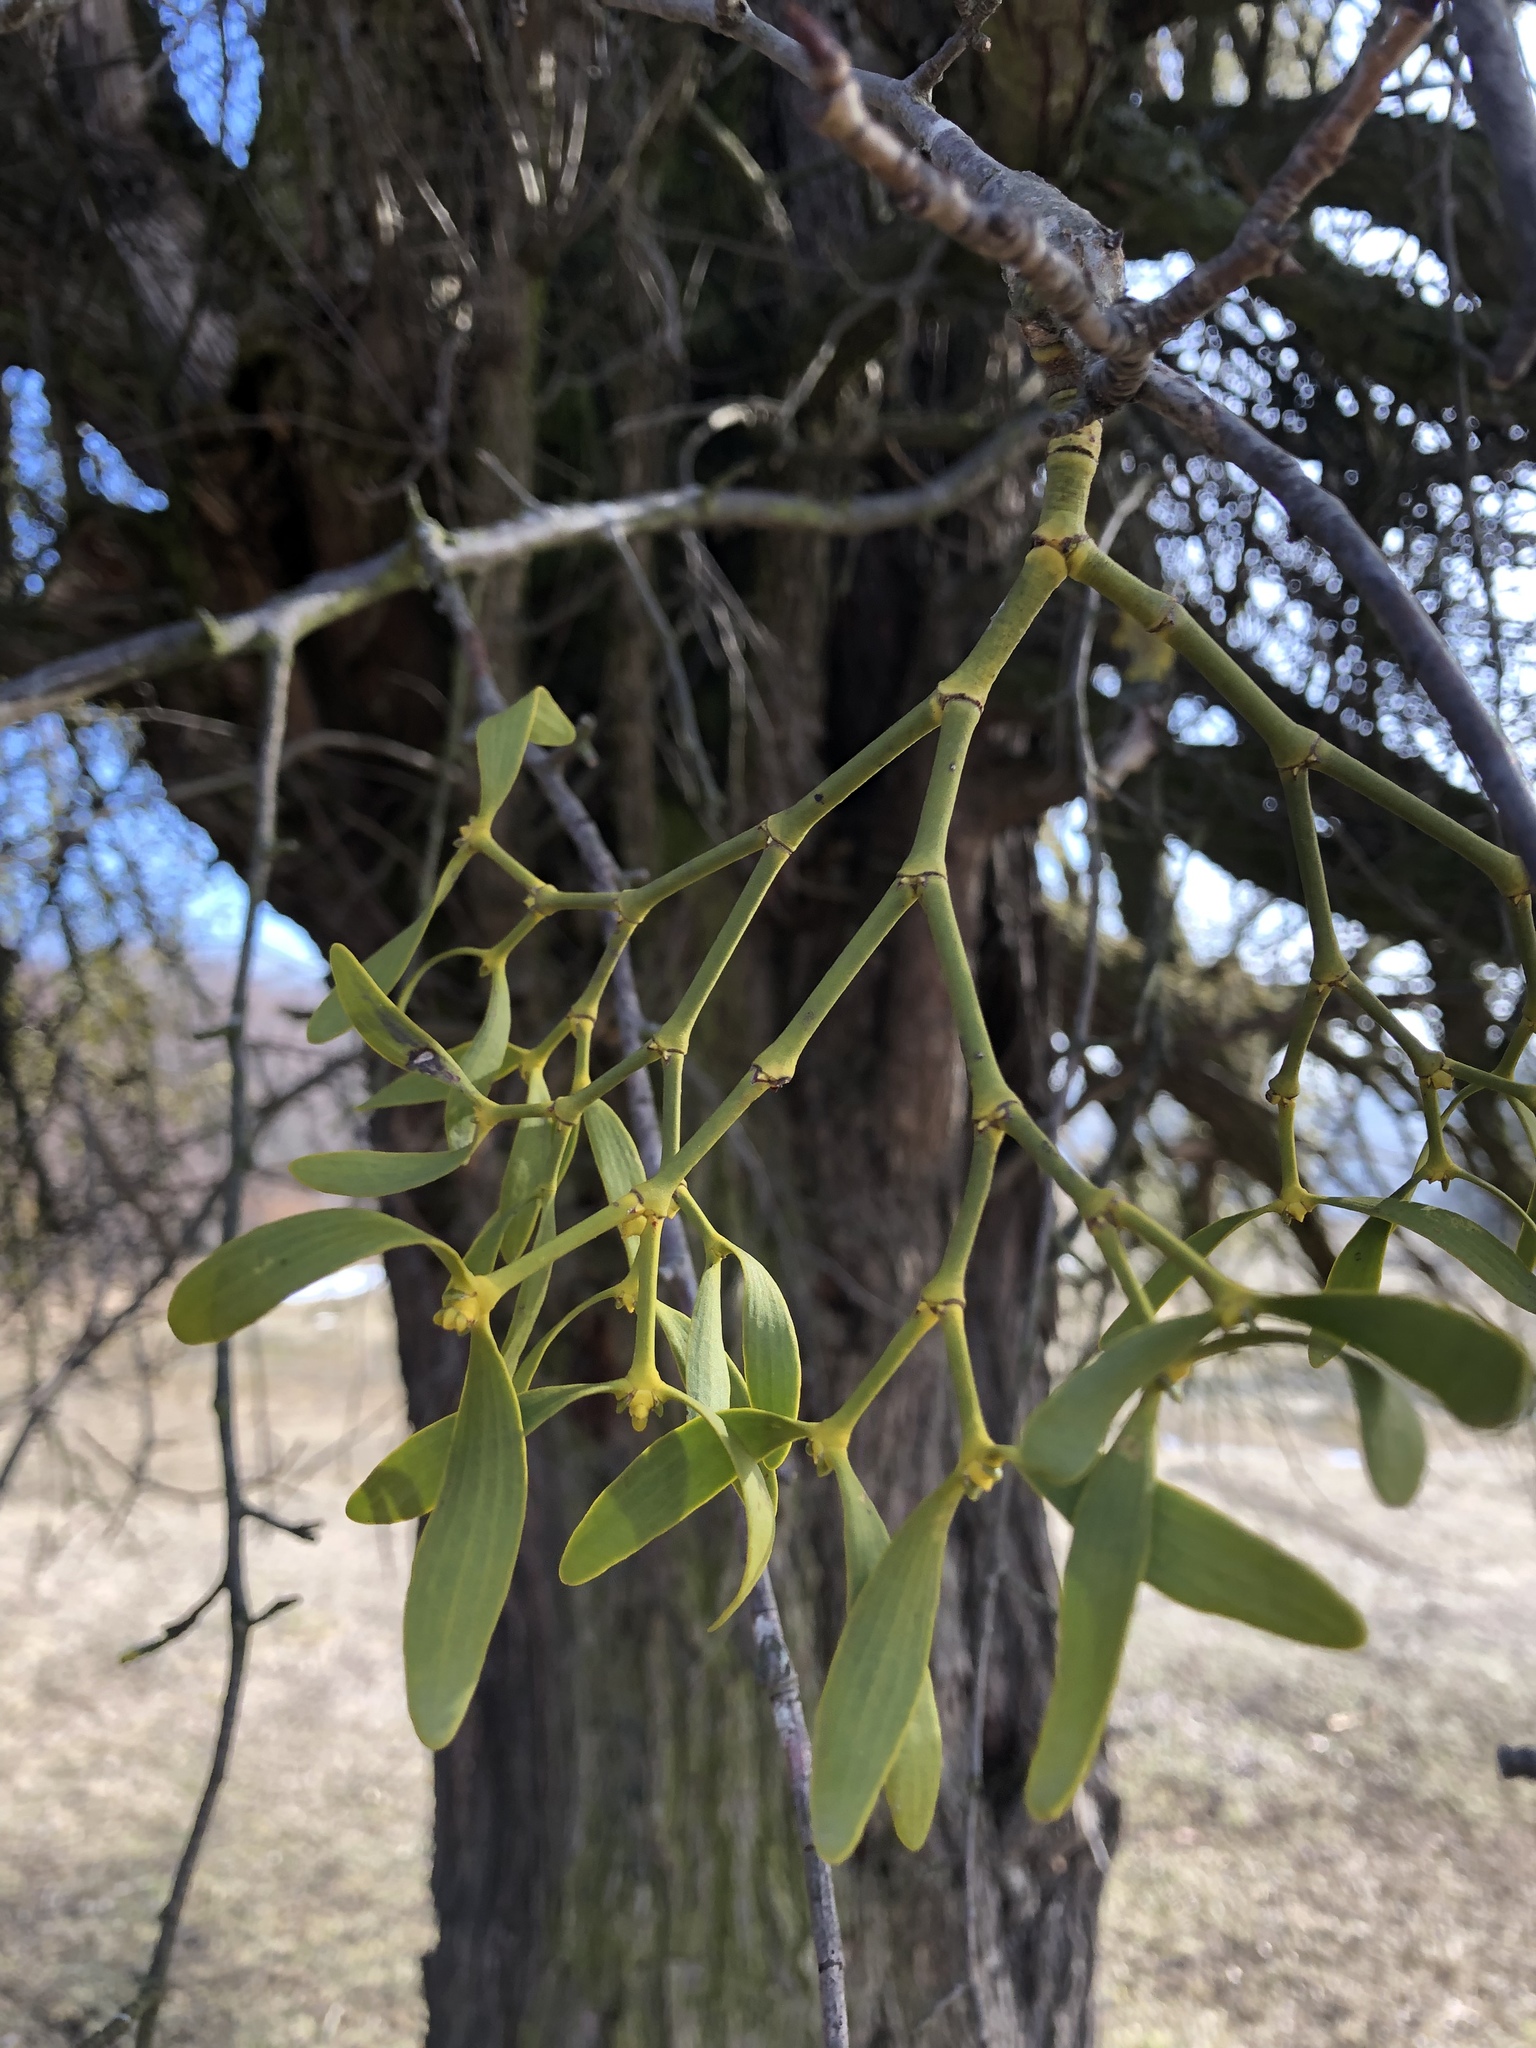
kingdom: Plantae
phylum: Tracheophyta
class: Magnoliopsida
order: Santalales
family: Viscaceae
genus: Viscum
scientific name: Viscum album
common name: Mistletoe
